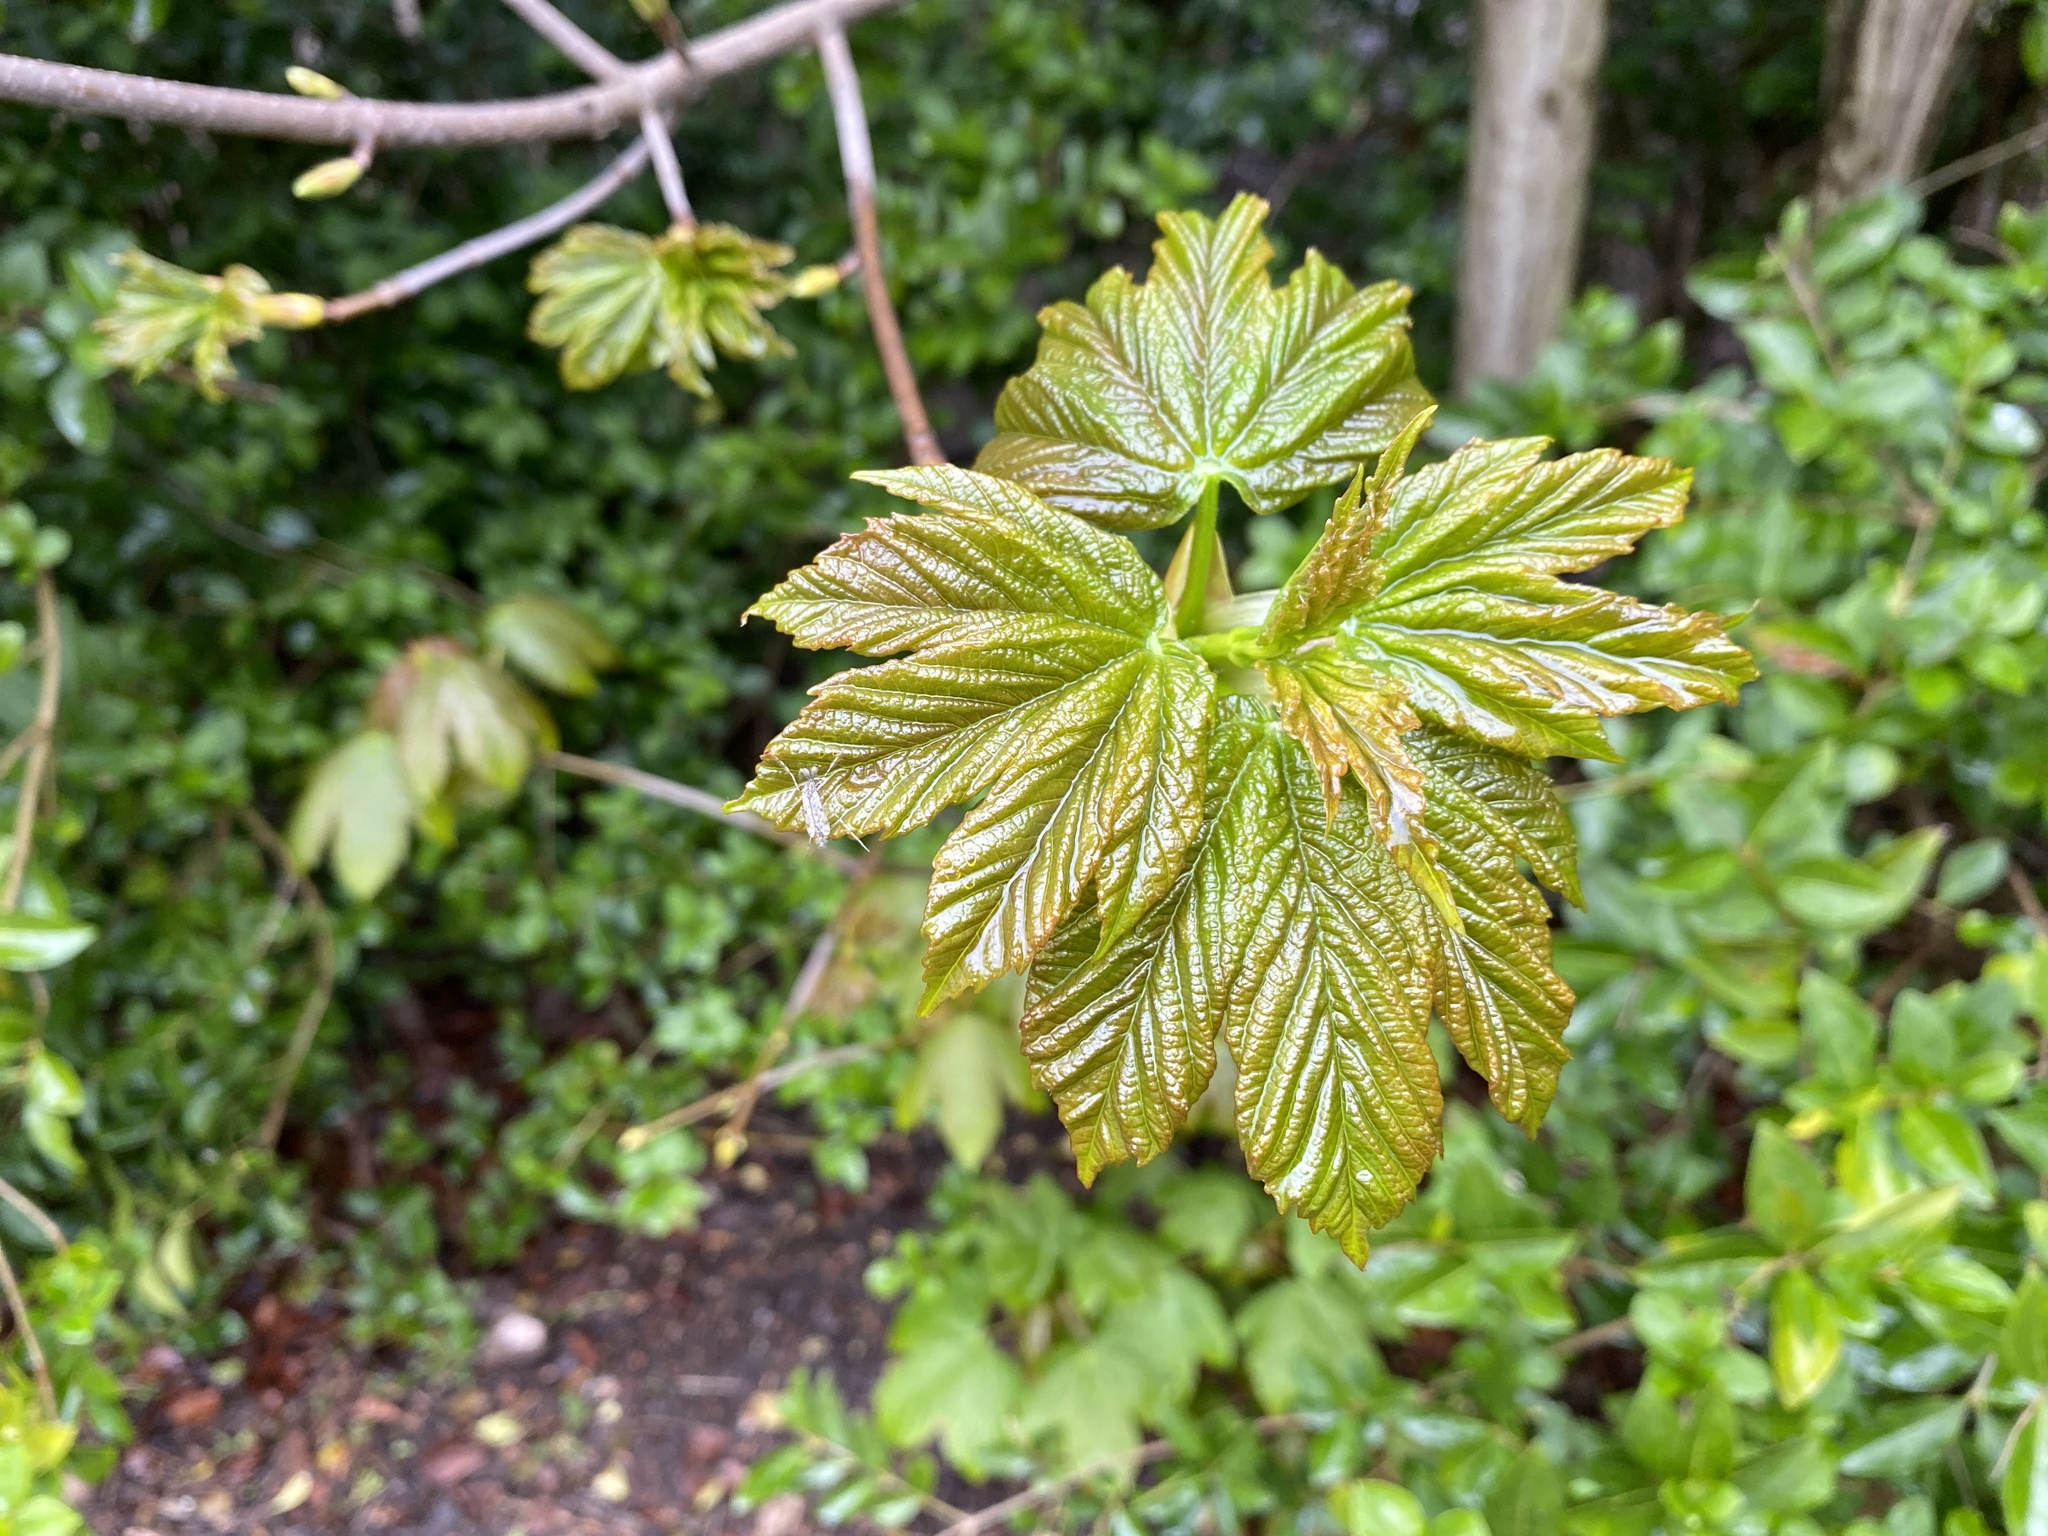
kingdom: Plantae
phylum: Tracheophyta
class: Magnoliopsida
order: Sapindales
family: Sapindaceae
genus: Acer
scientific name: Acer pseudoplatanus
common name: Sycamore
